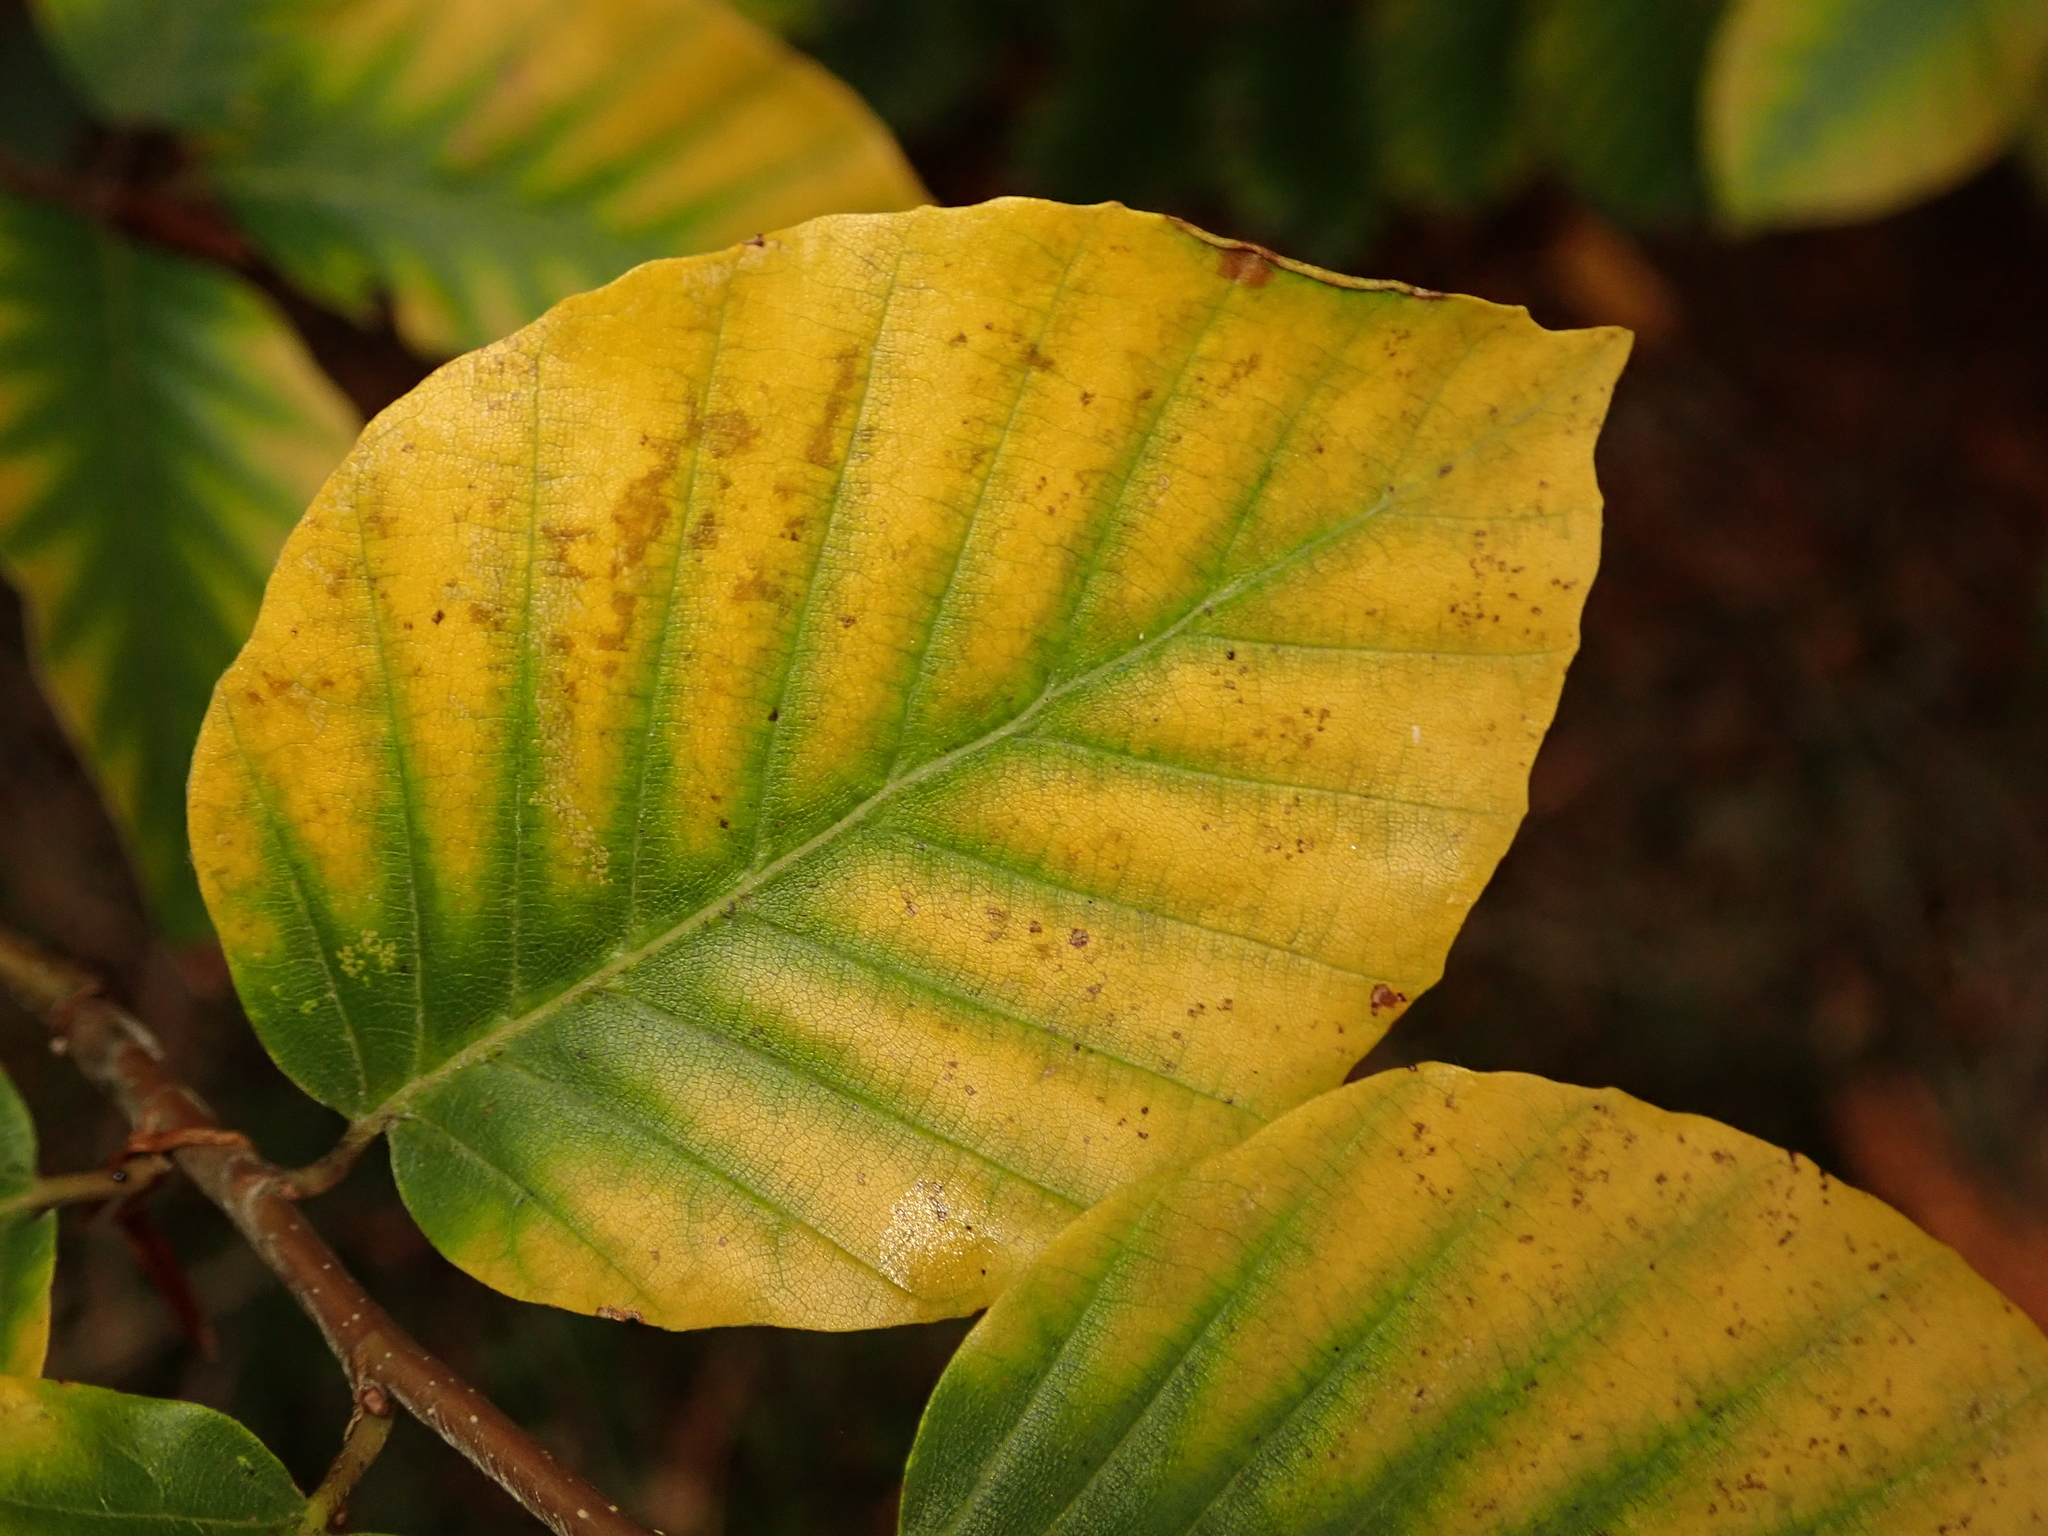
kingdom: Plantae
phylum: Tracheophyta
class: Magnoliopsida
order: Fagales
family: Fagaceae
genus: Fagus
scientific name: Fagus sylvatica
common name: Beech
